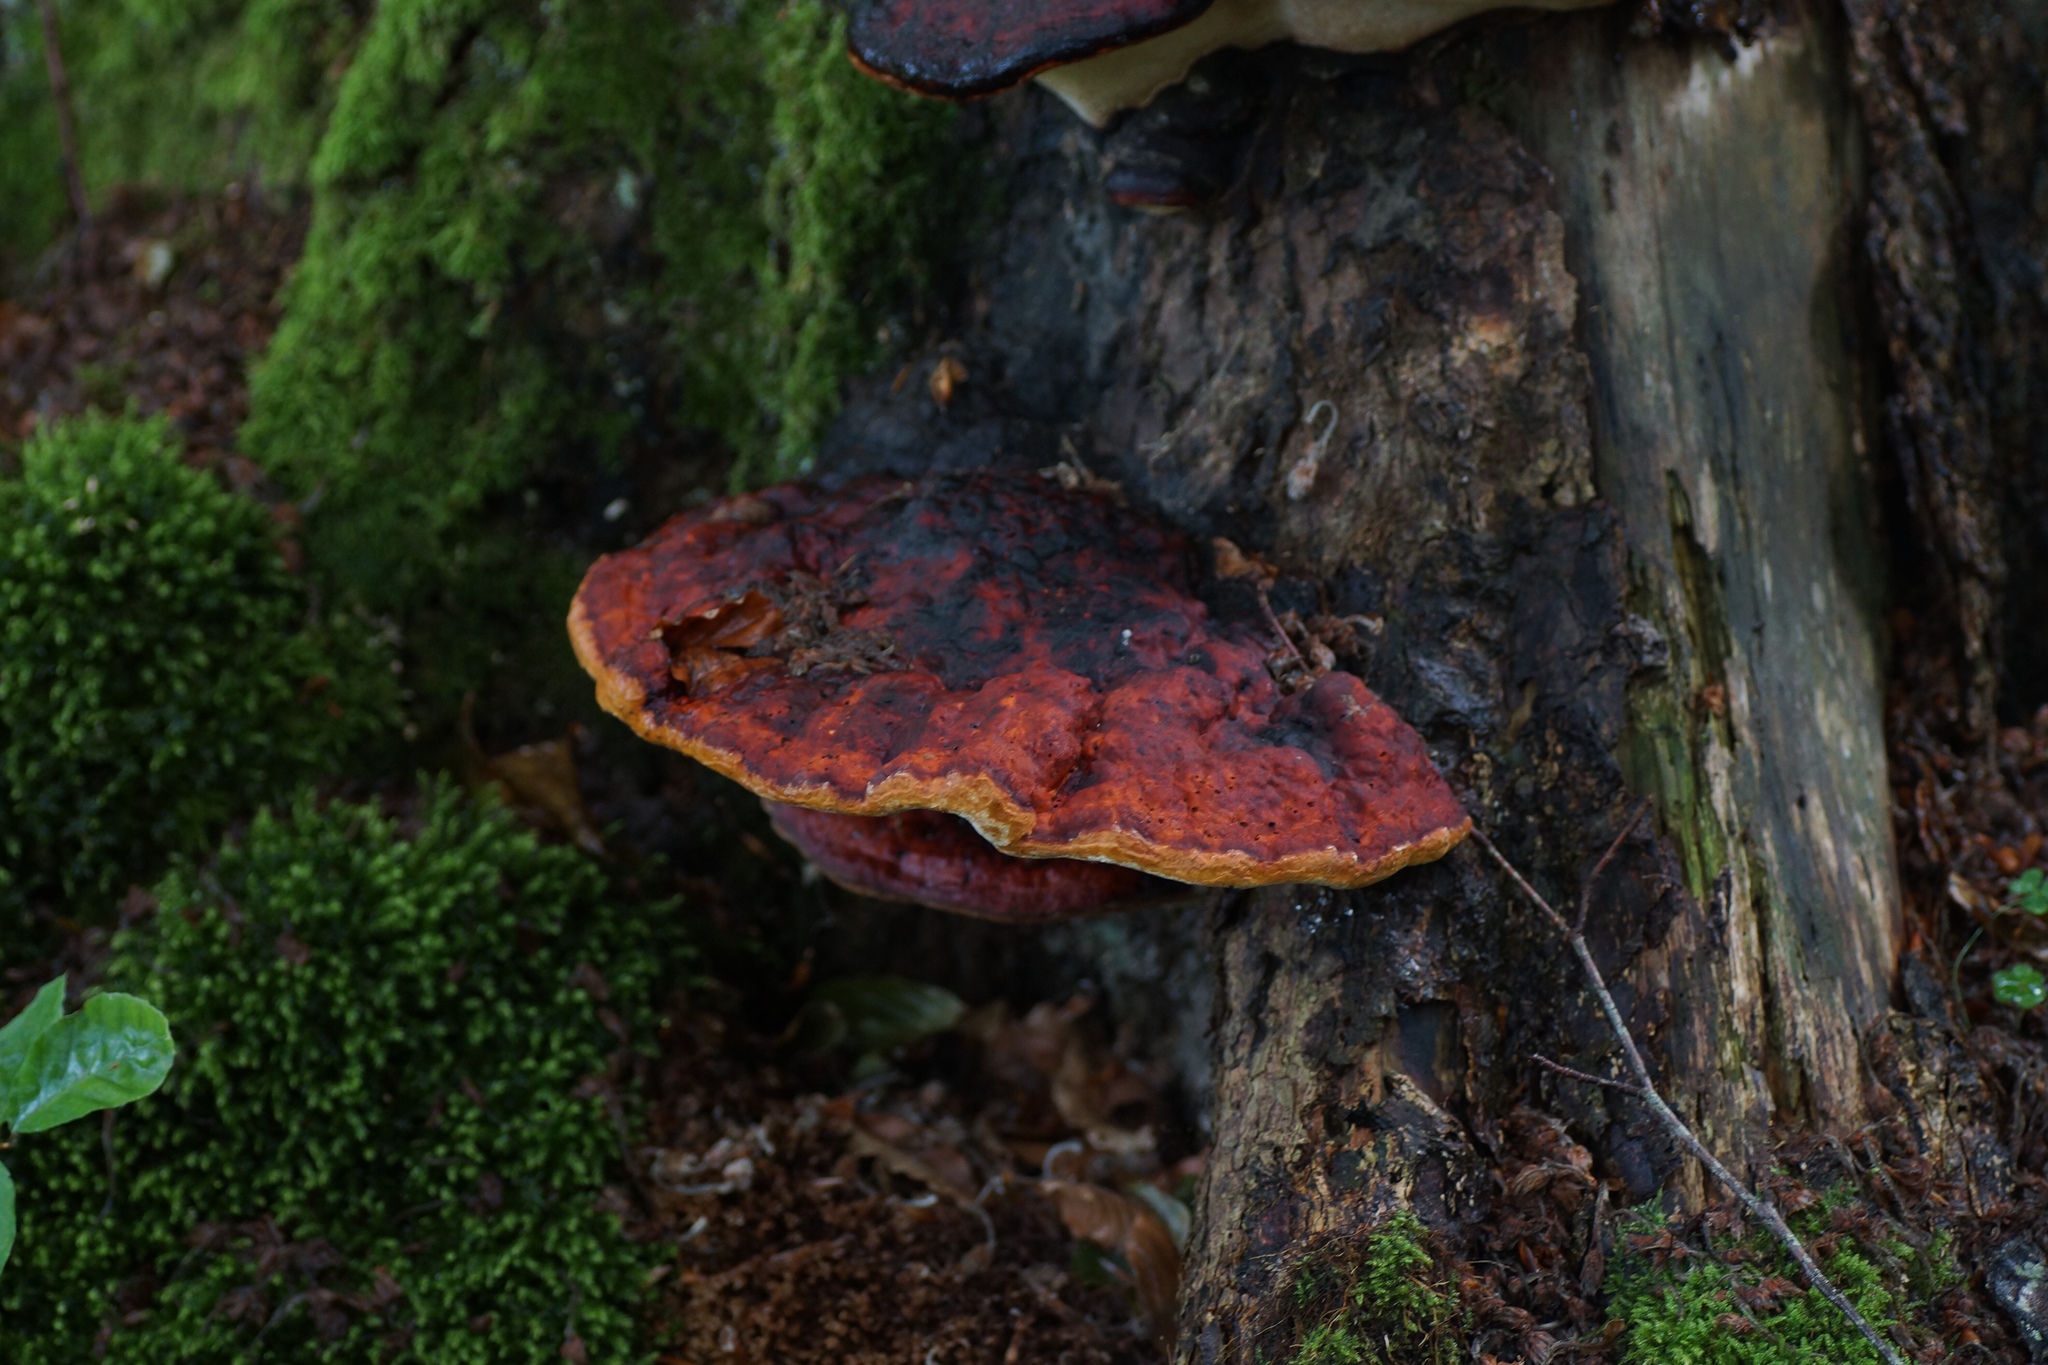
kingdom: Fungi
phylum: Basidiomycota
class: Agaricomycetes
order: Polyporales
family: Fomitopsidaceae
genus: Fomitopsis
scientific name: Fomitopsis pinicola
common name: Red-belted bracket
